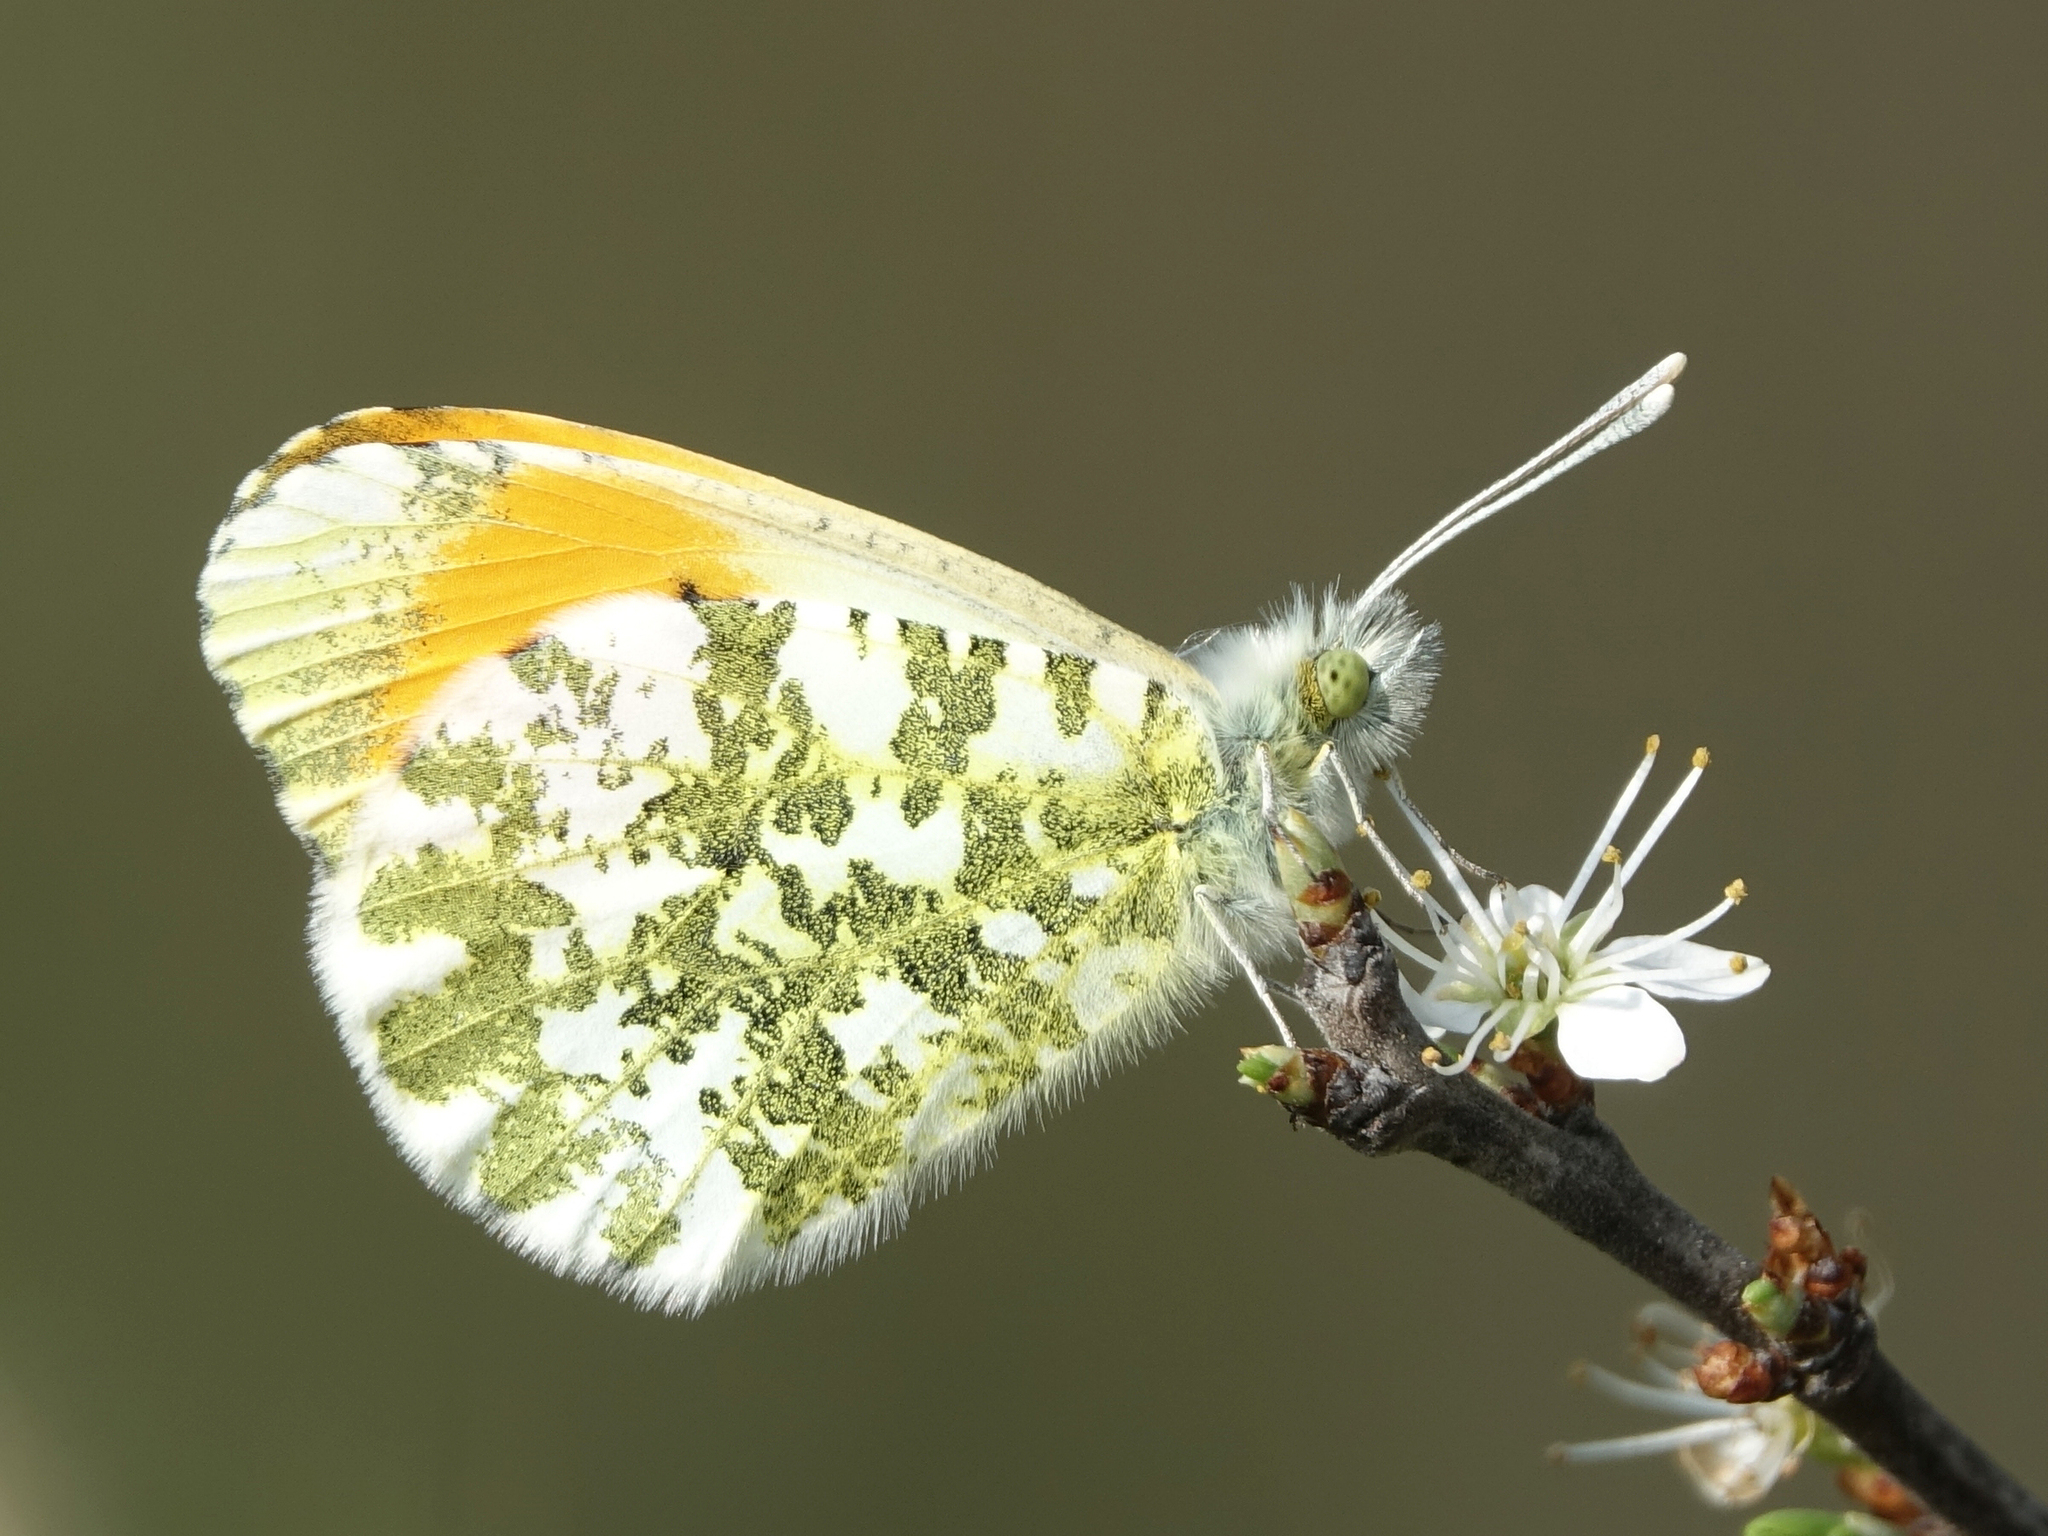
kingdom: Animalia
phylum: Arthropoda
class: Insecta
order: Lepidoptera
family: Pieridae
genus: Anthocharis
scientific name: Anthocharis cardamines
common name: Orange-tip
